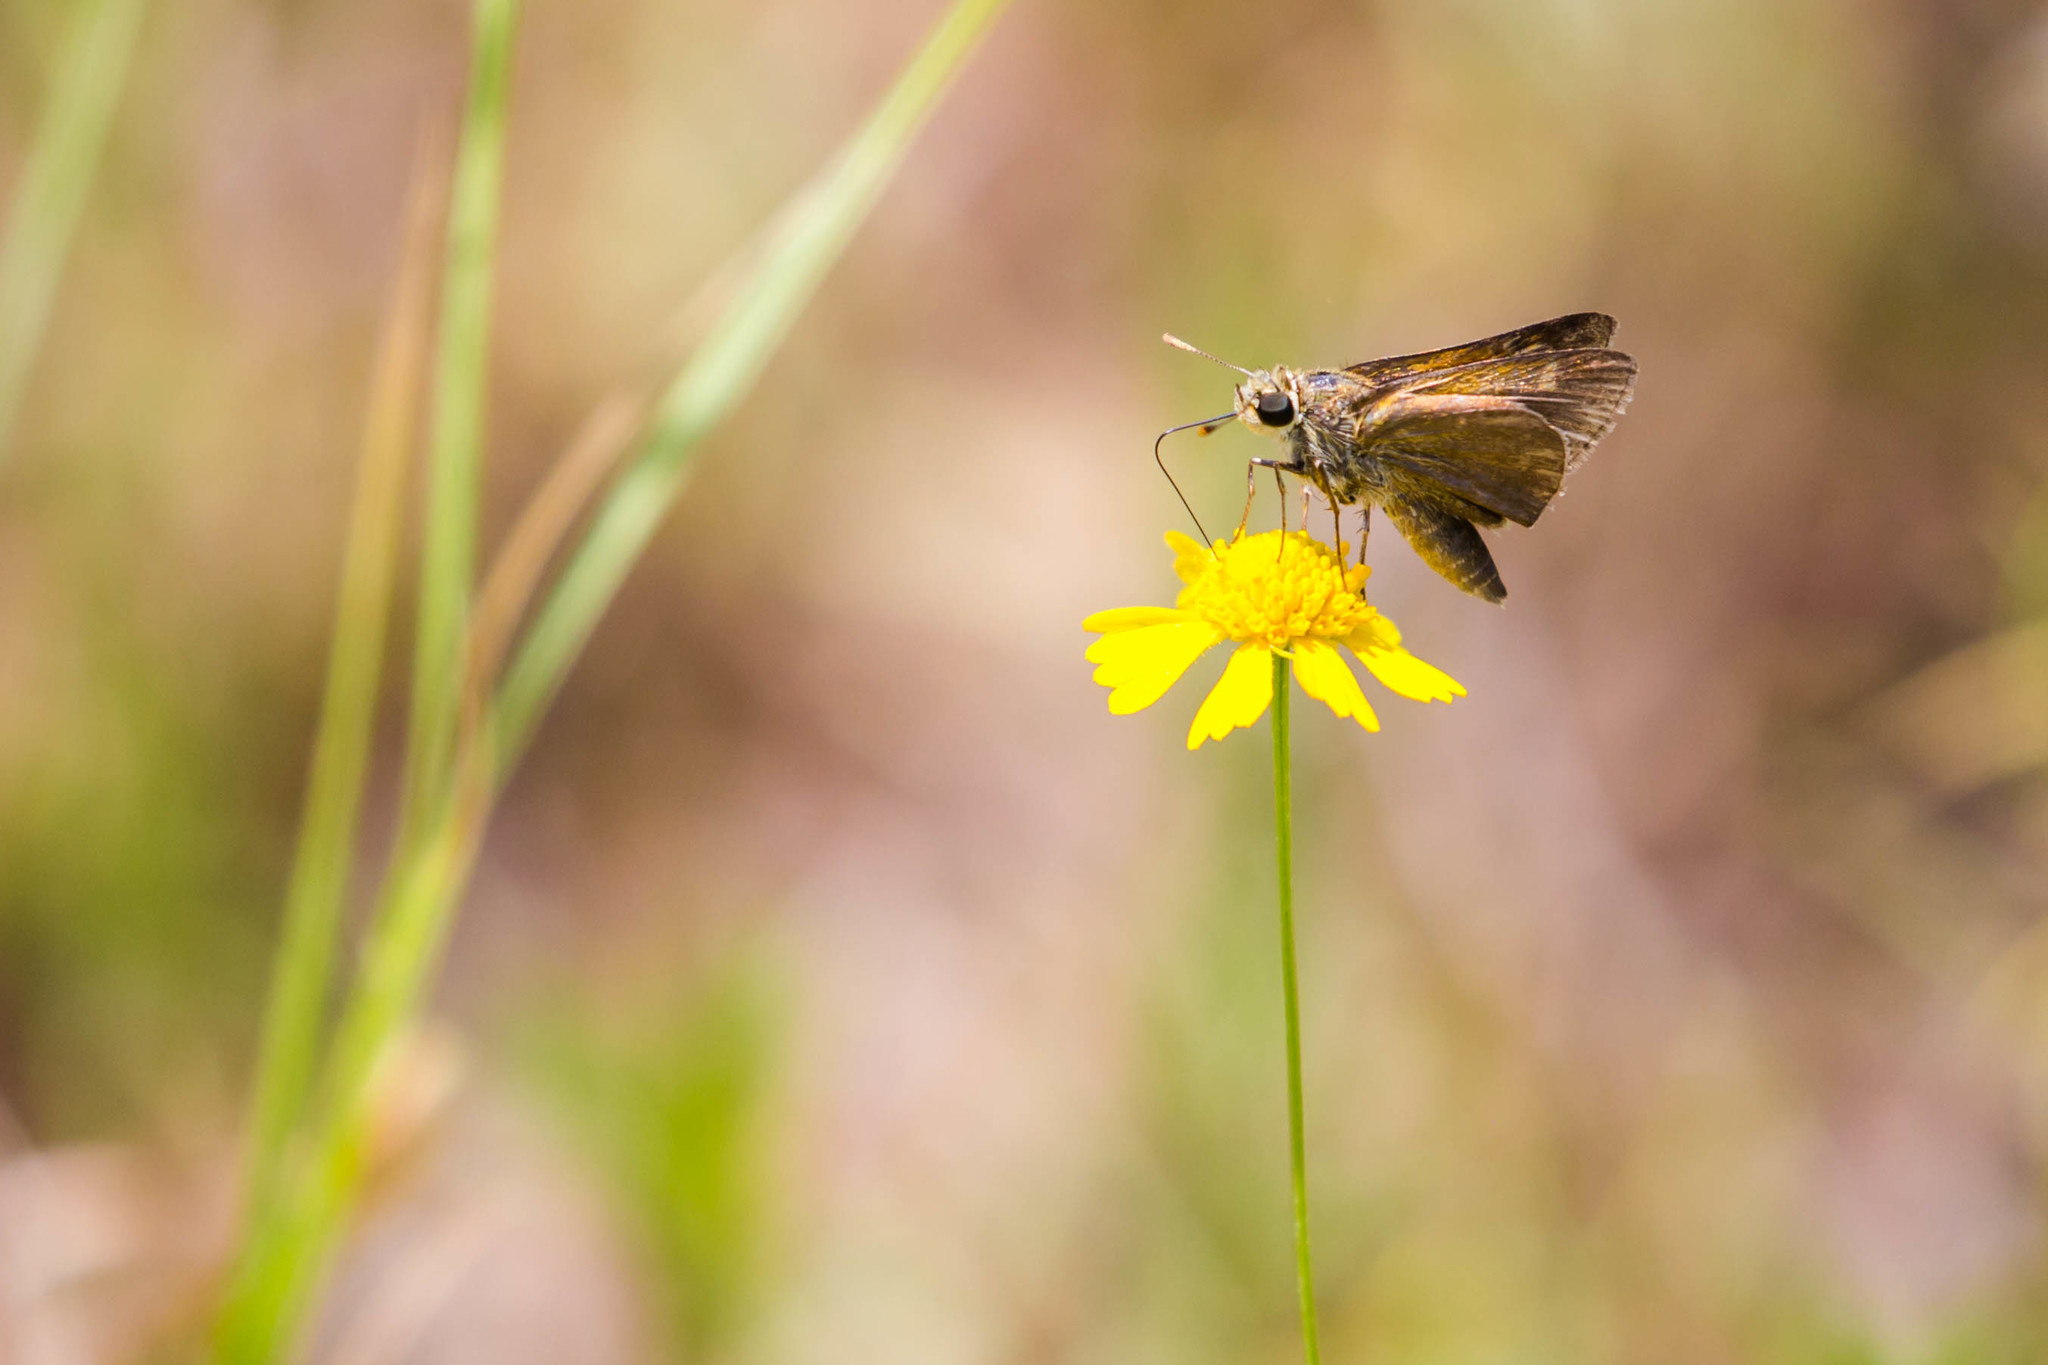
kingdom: Animalia
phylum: Arthropoda
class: Insecta
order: Lepidoptera
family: Hesperiidae
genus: Polites
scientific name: Polites themistocles
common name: Tawny-edged skipper
